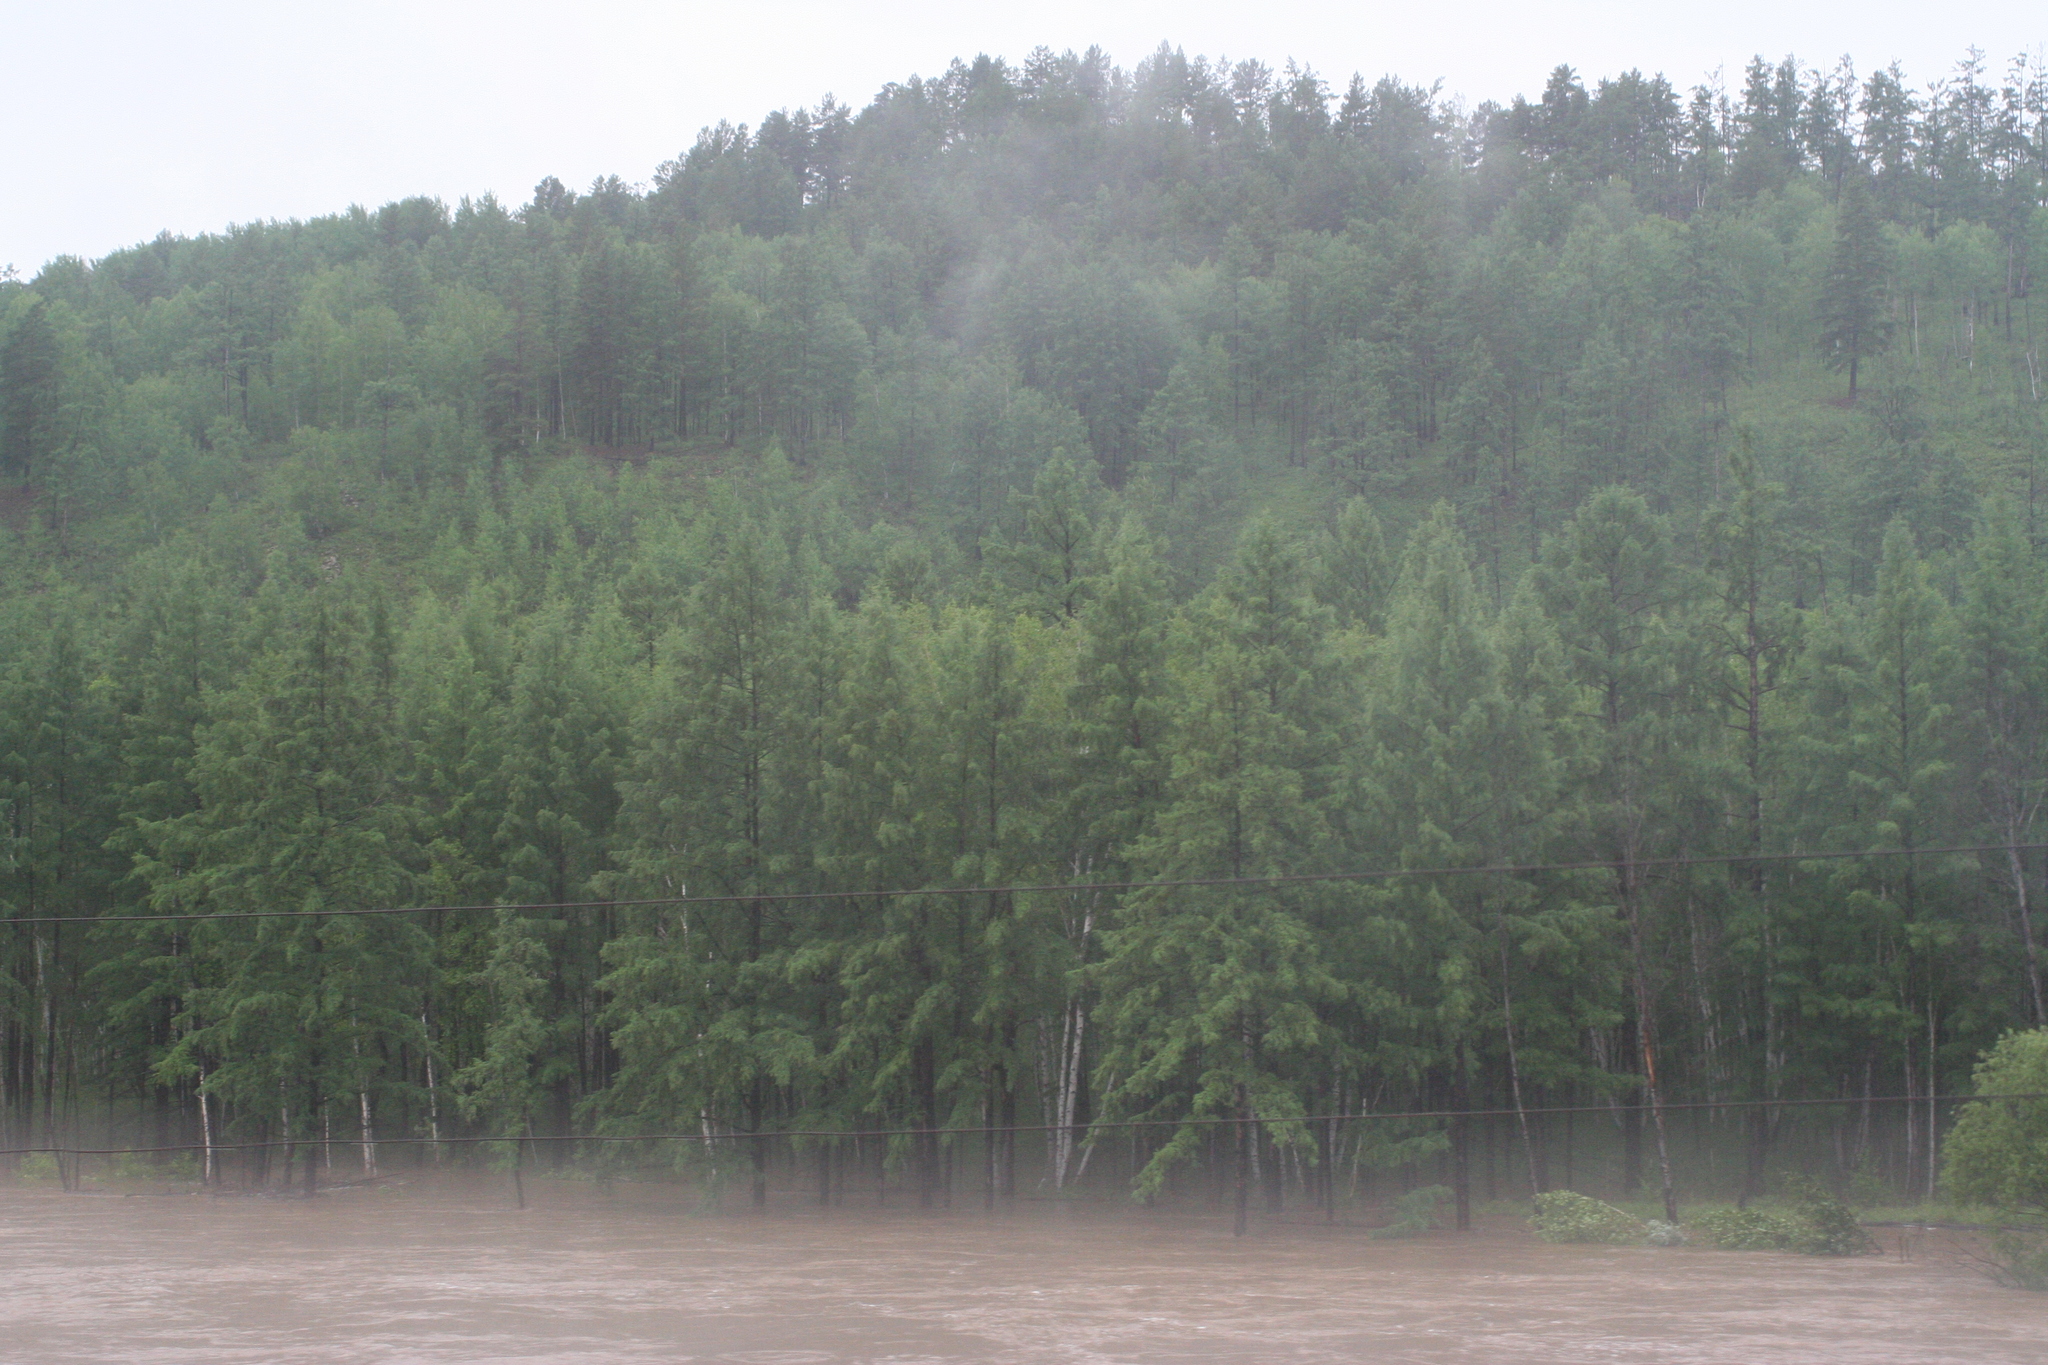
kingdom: Plantae
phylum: Tracheophyta
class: Pinopsida
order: Pinales
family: Pinaceae
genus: Larix
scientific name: Larix gmelinii
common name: Dahurian larch
